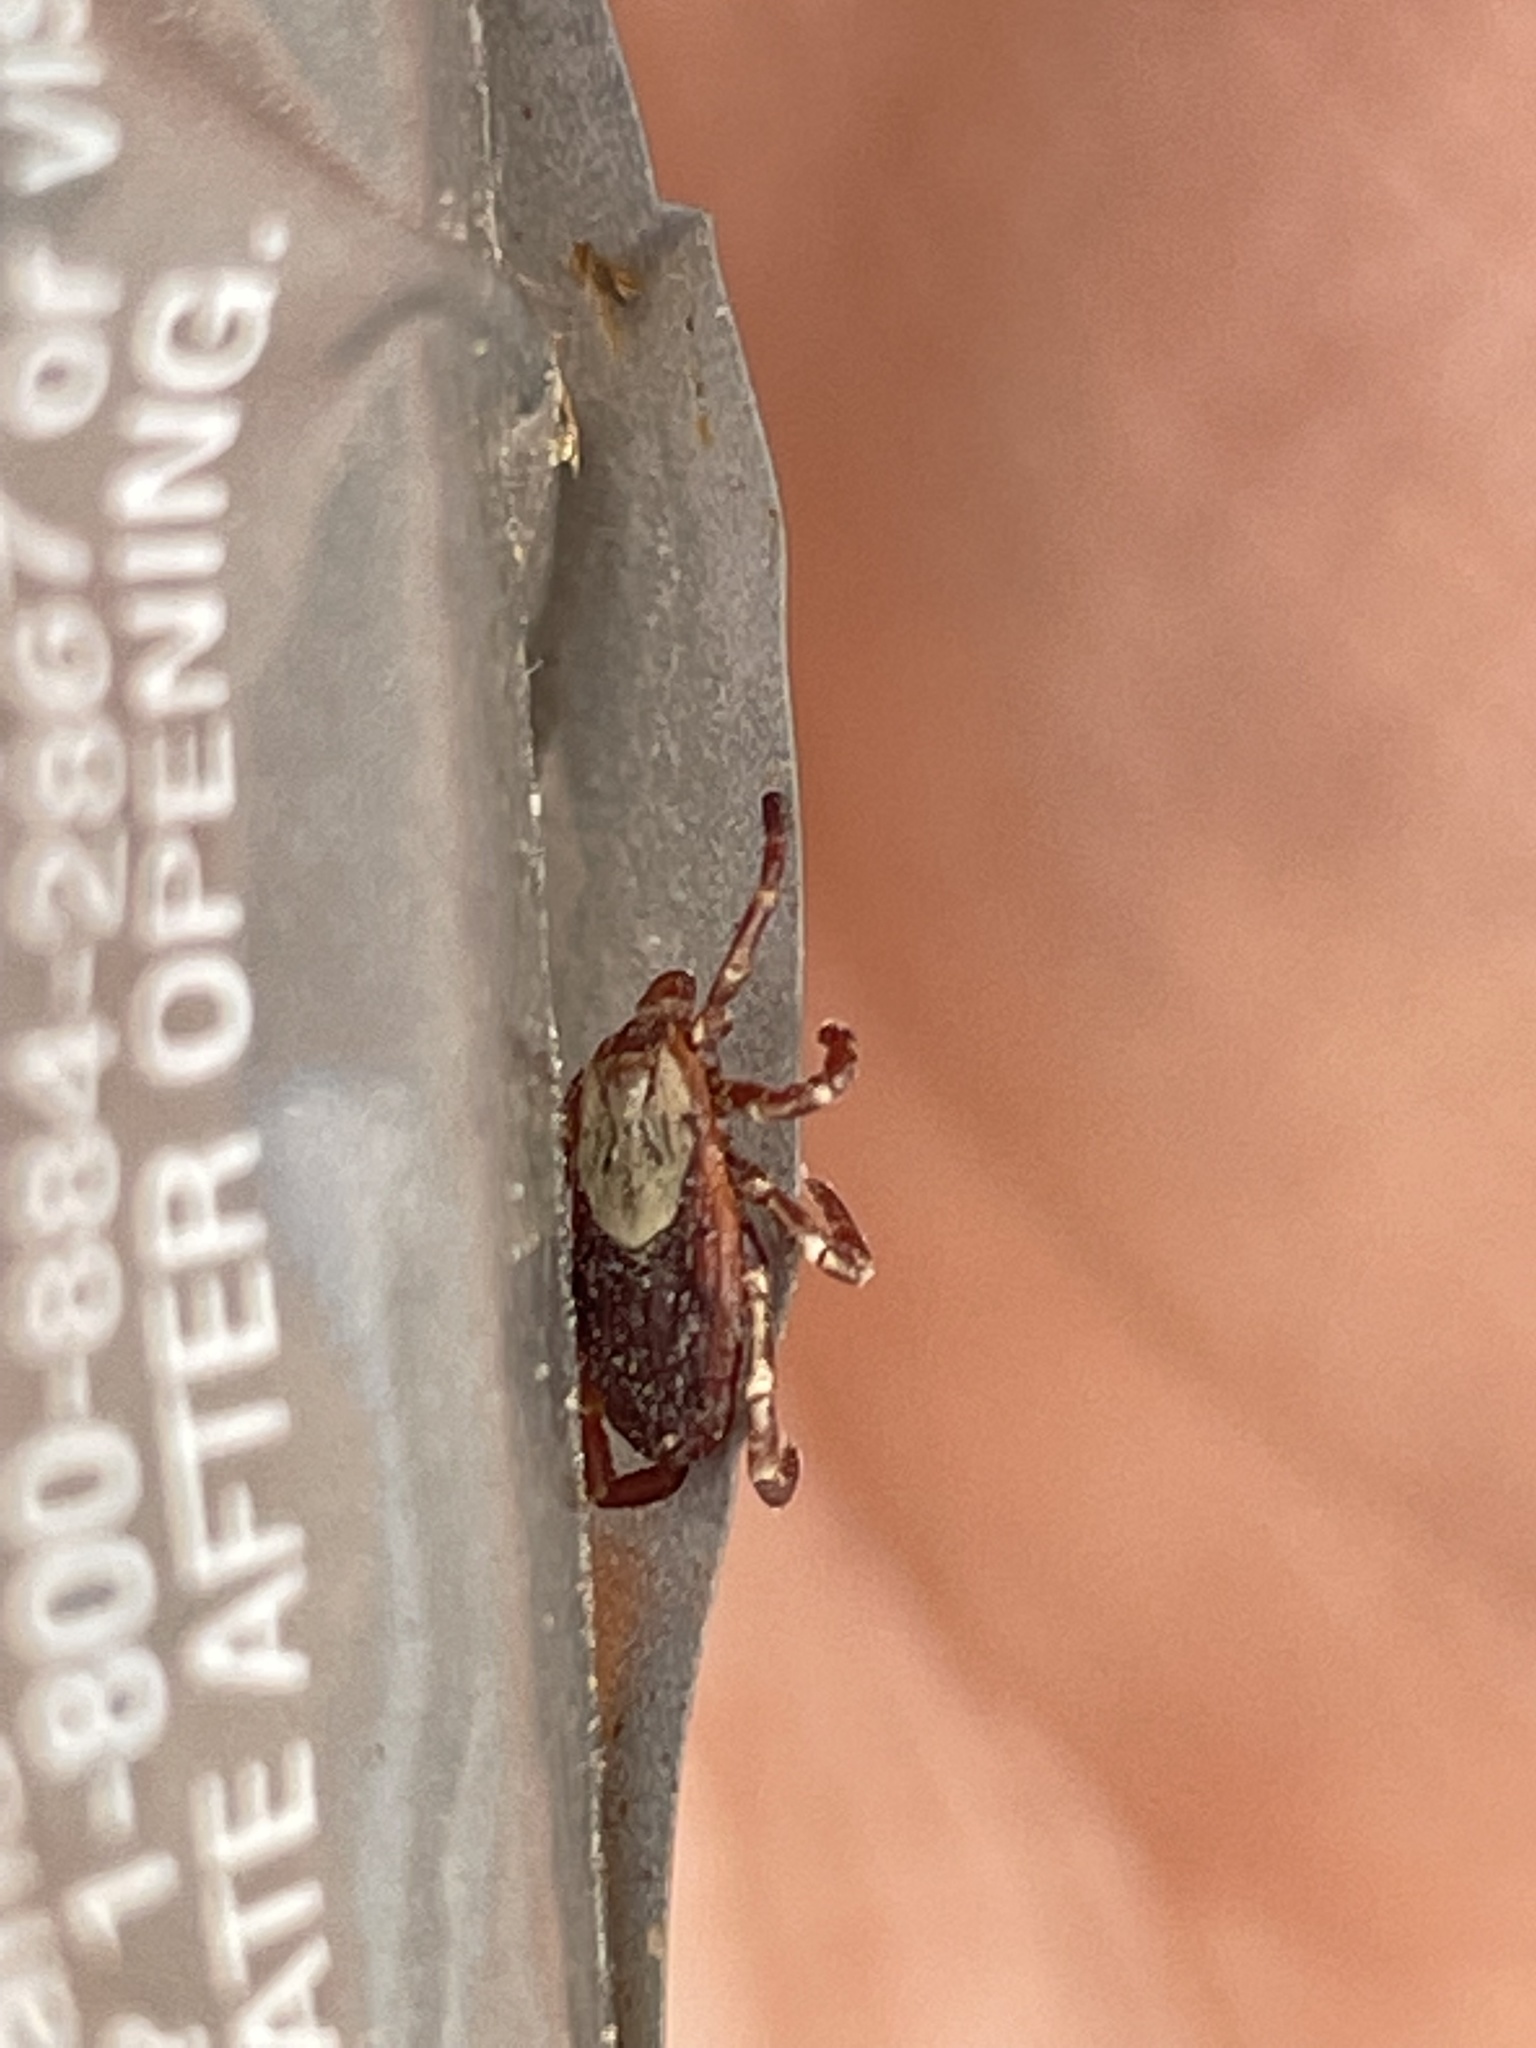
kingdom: Animalia
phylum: Arthropoda
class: Arachnida
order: Ixodida
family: Ixodidae
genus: Dermacentor
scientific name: Dermacentor variabilis
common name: American dog tick
